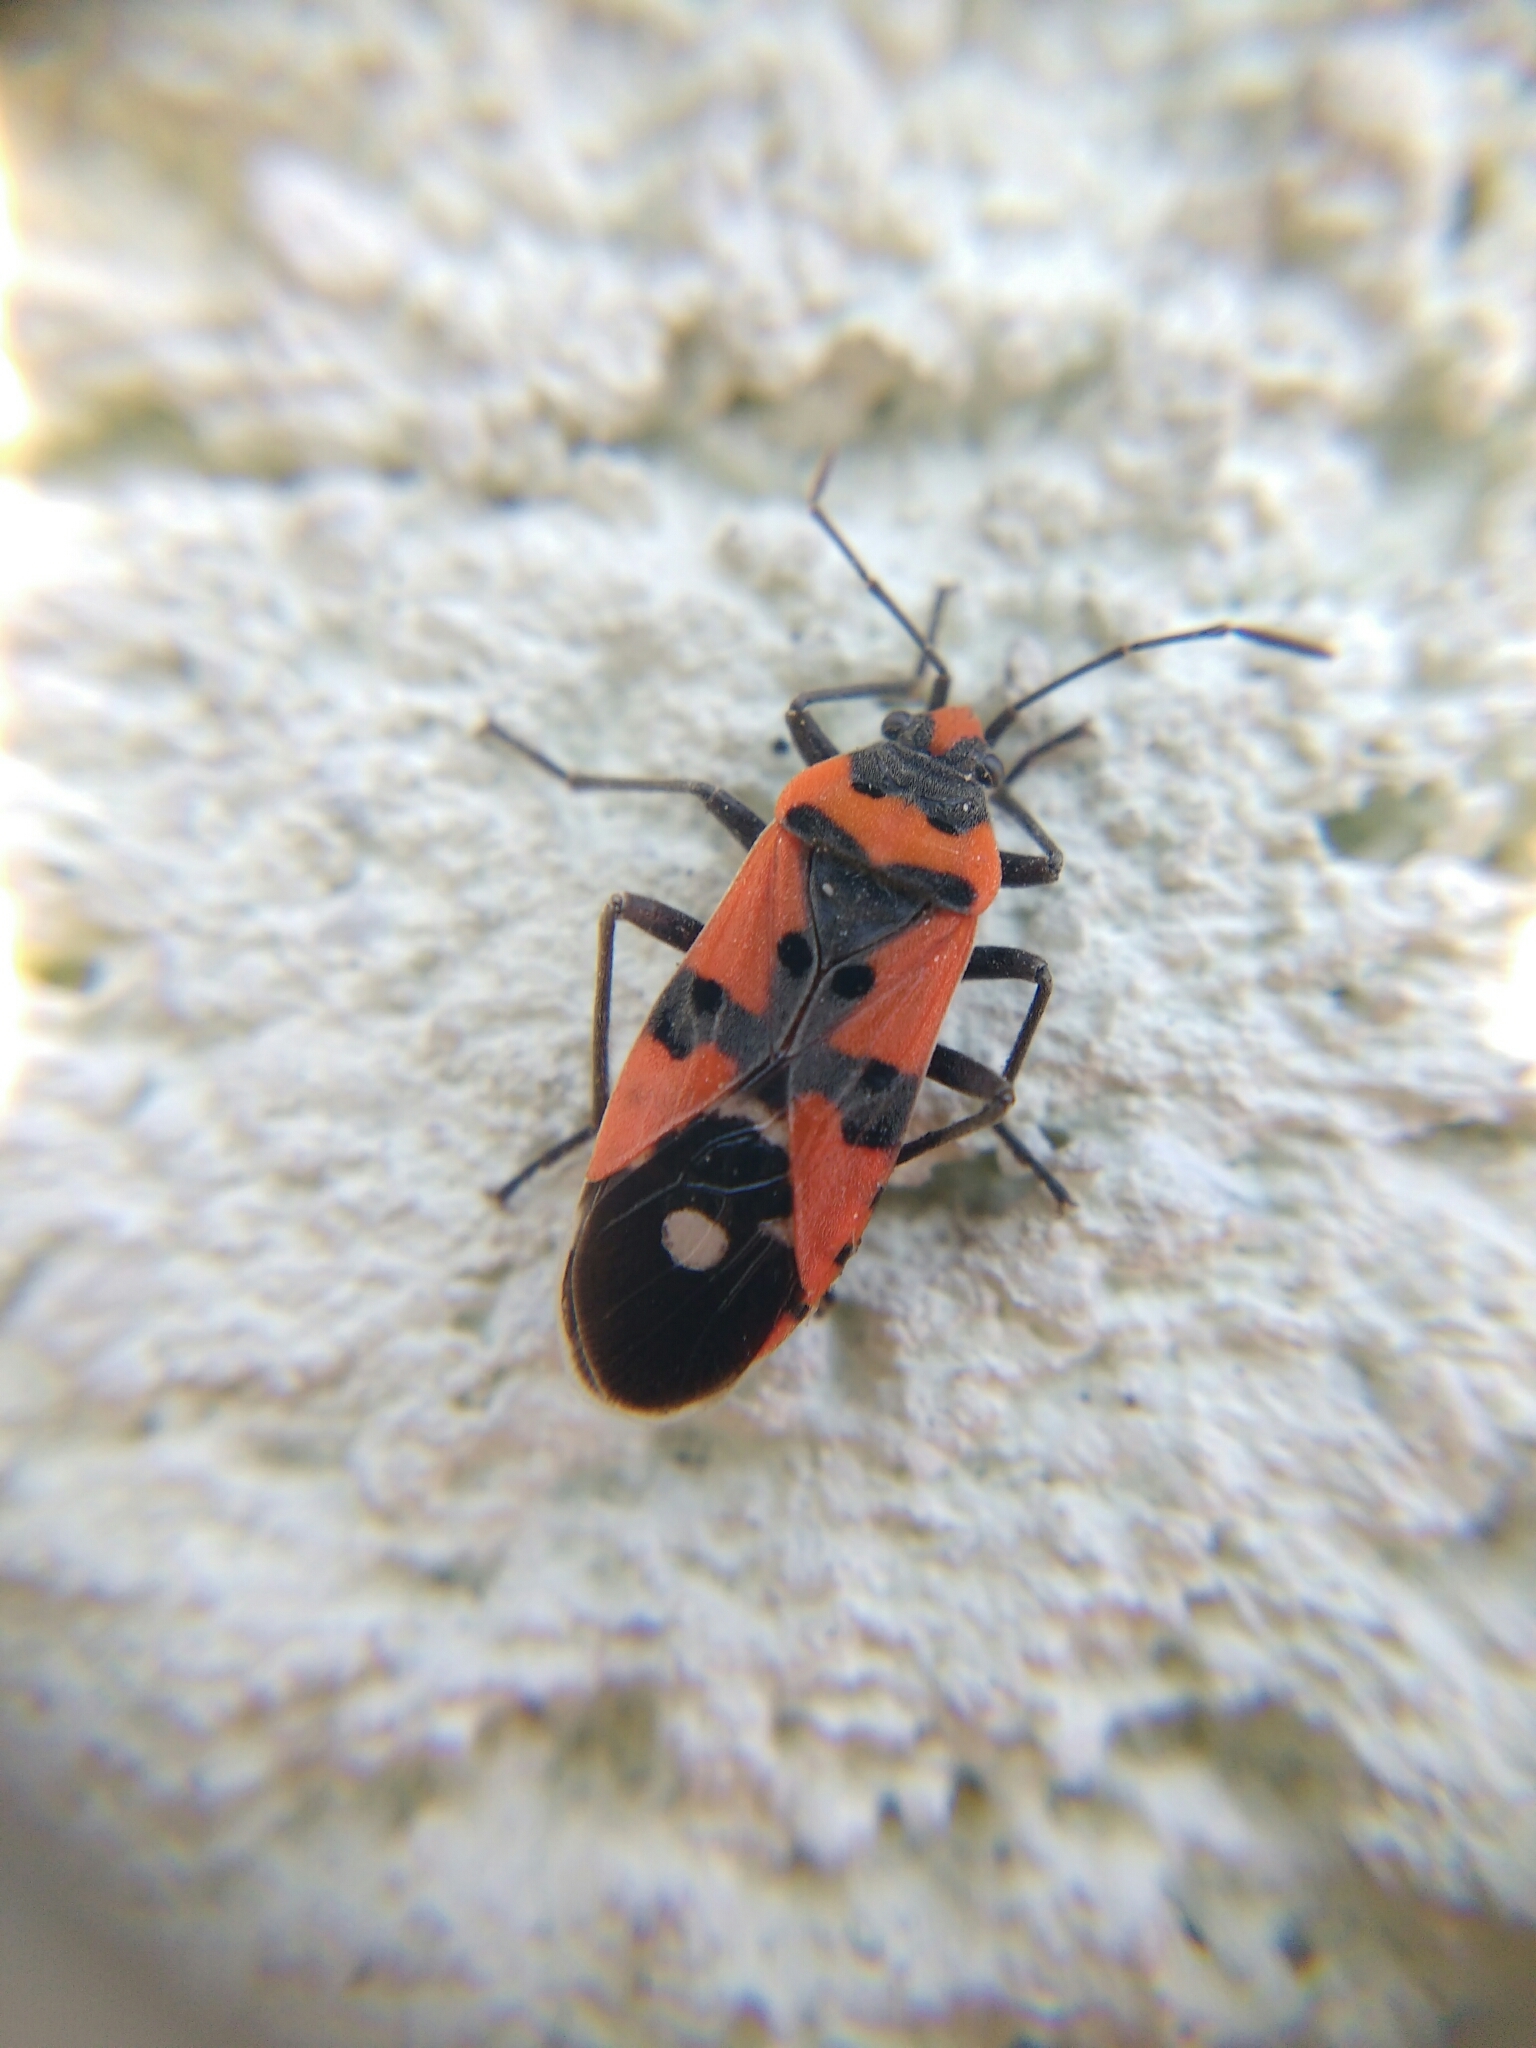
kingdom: Animalia
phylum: Arthropoda
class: Insecta
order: Hemiptera
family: Lygaeidae
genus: Lygaeus
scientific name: Lygaeus equestris
